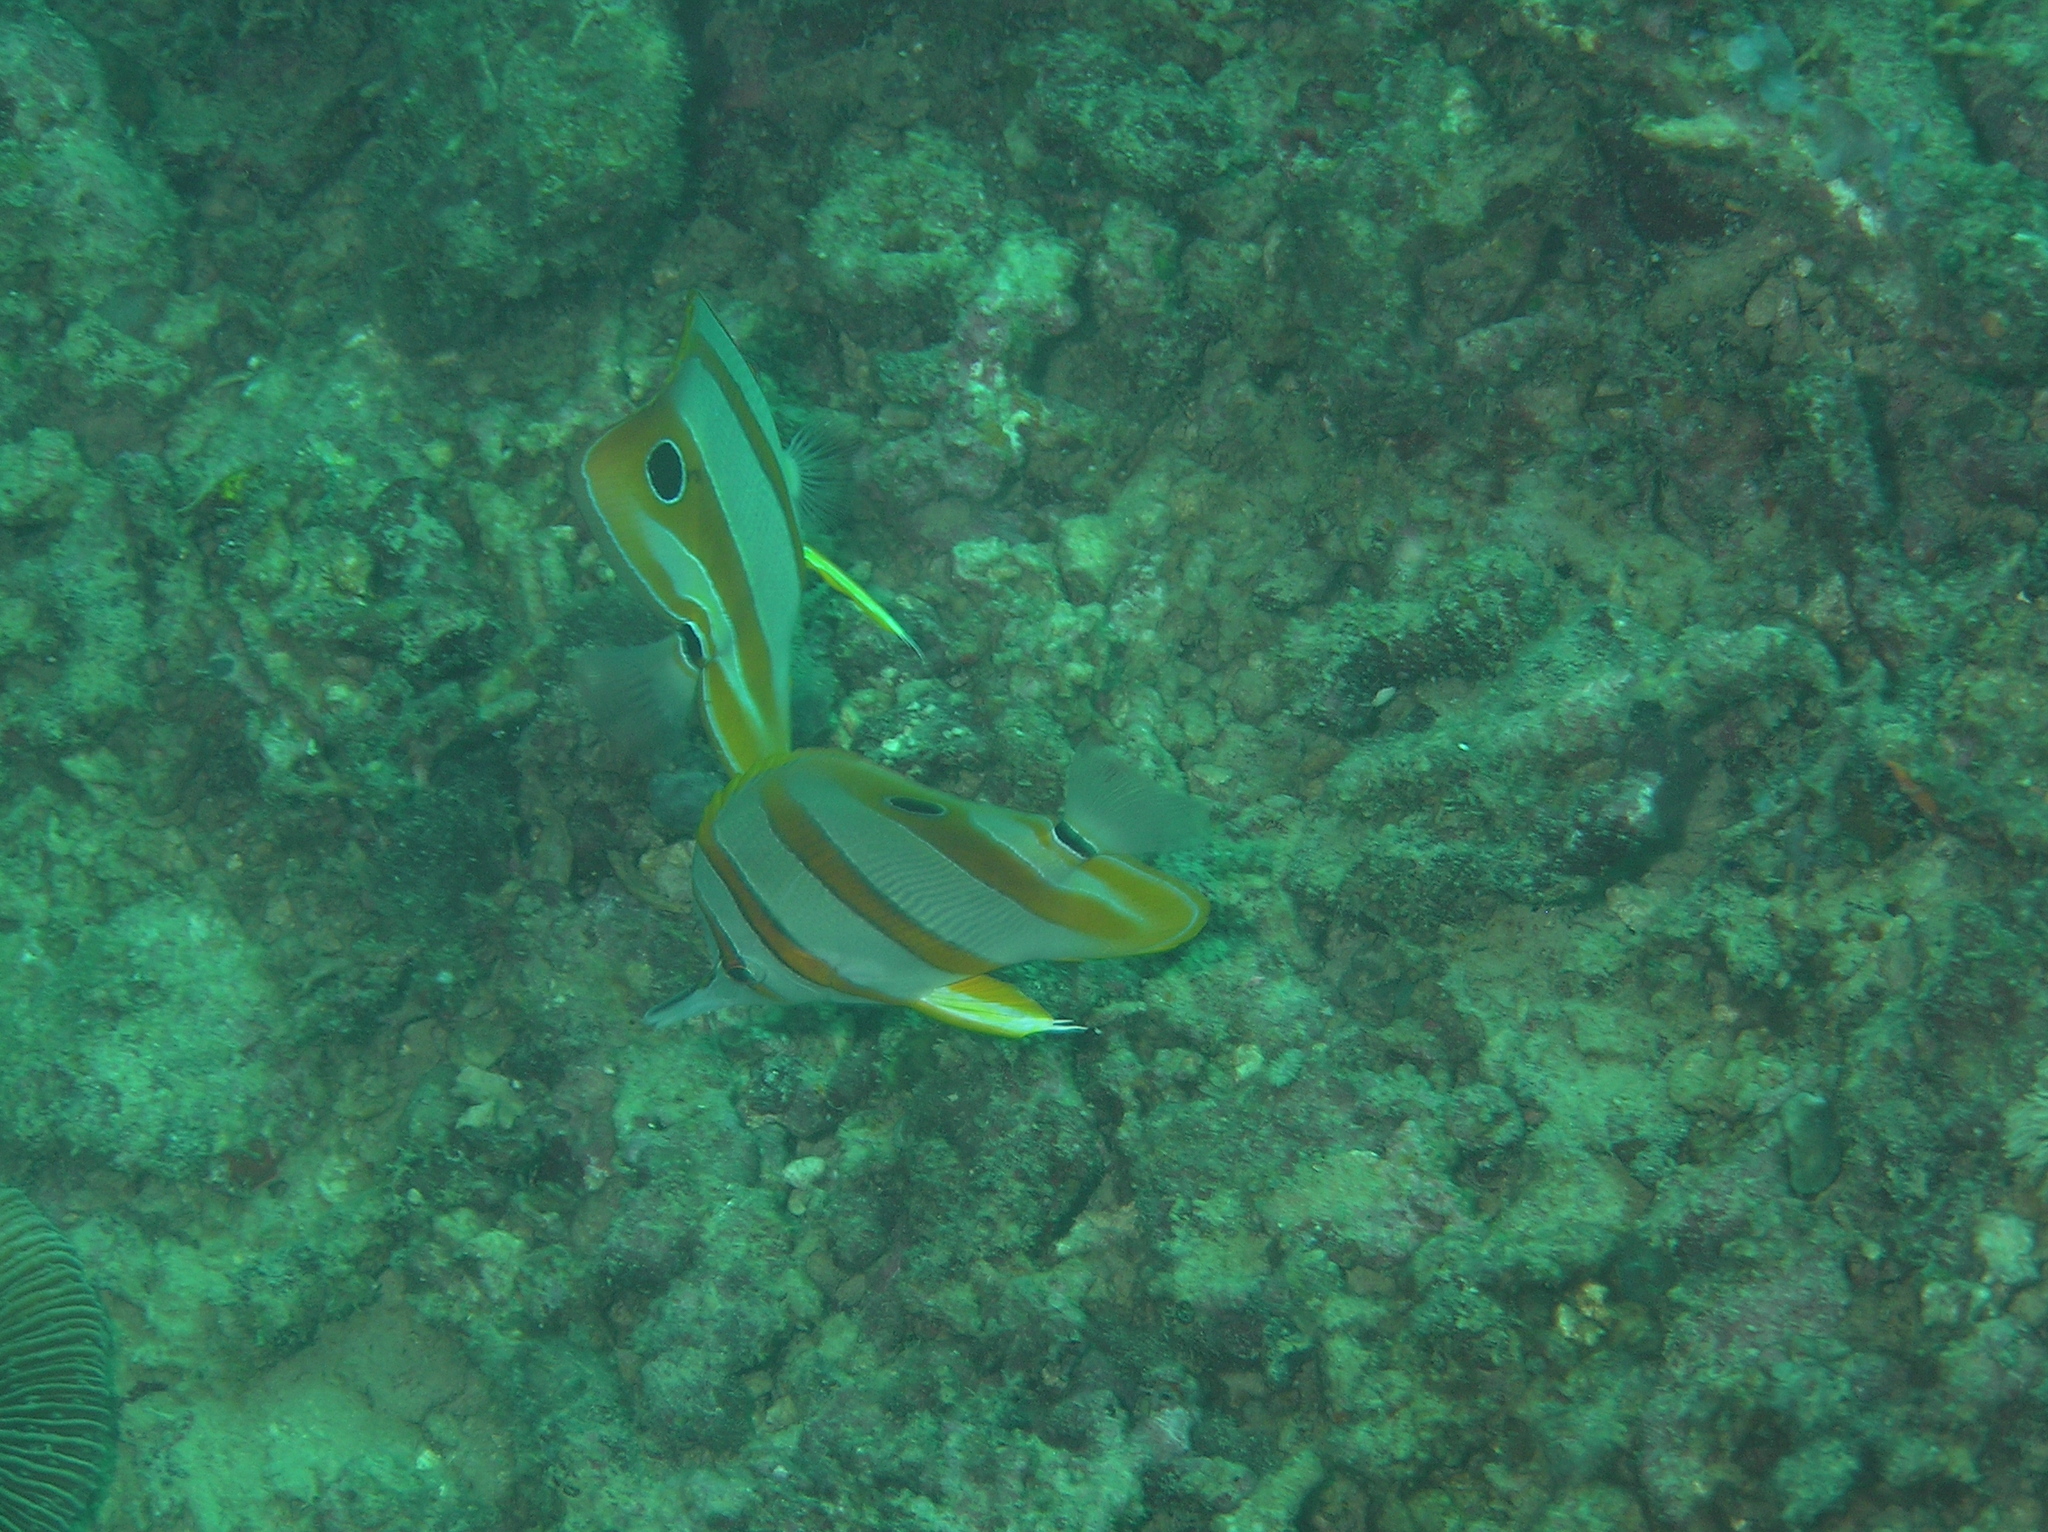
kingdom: Animalia
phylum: Chordata
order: Perciformes
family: Chaetodontidae
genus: Chelmon
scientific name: Chelmon rostratus
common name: Beaked butterflyfish
